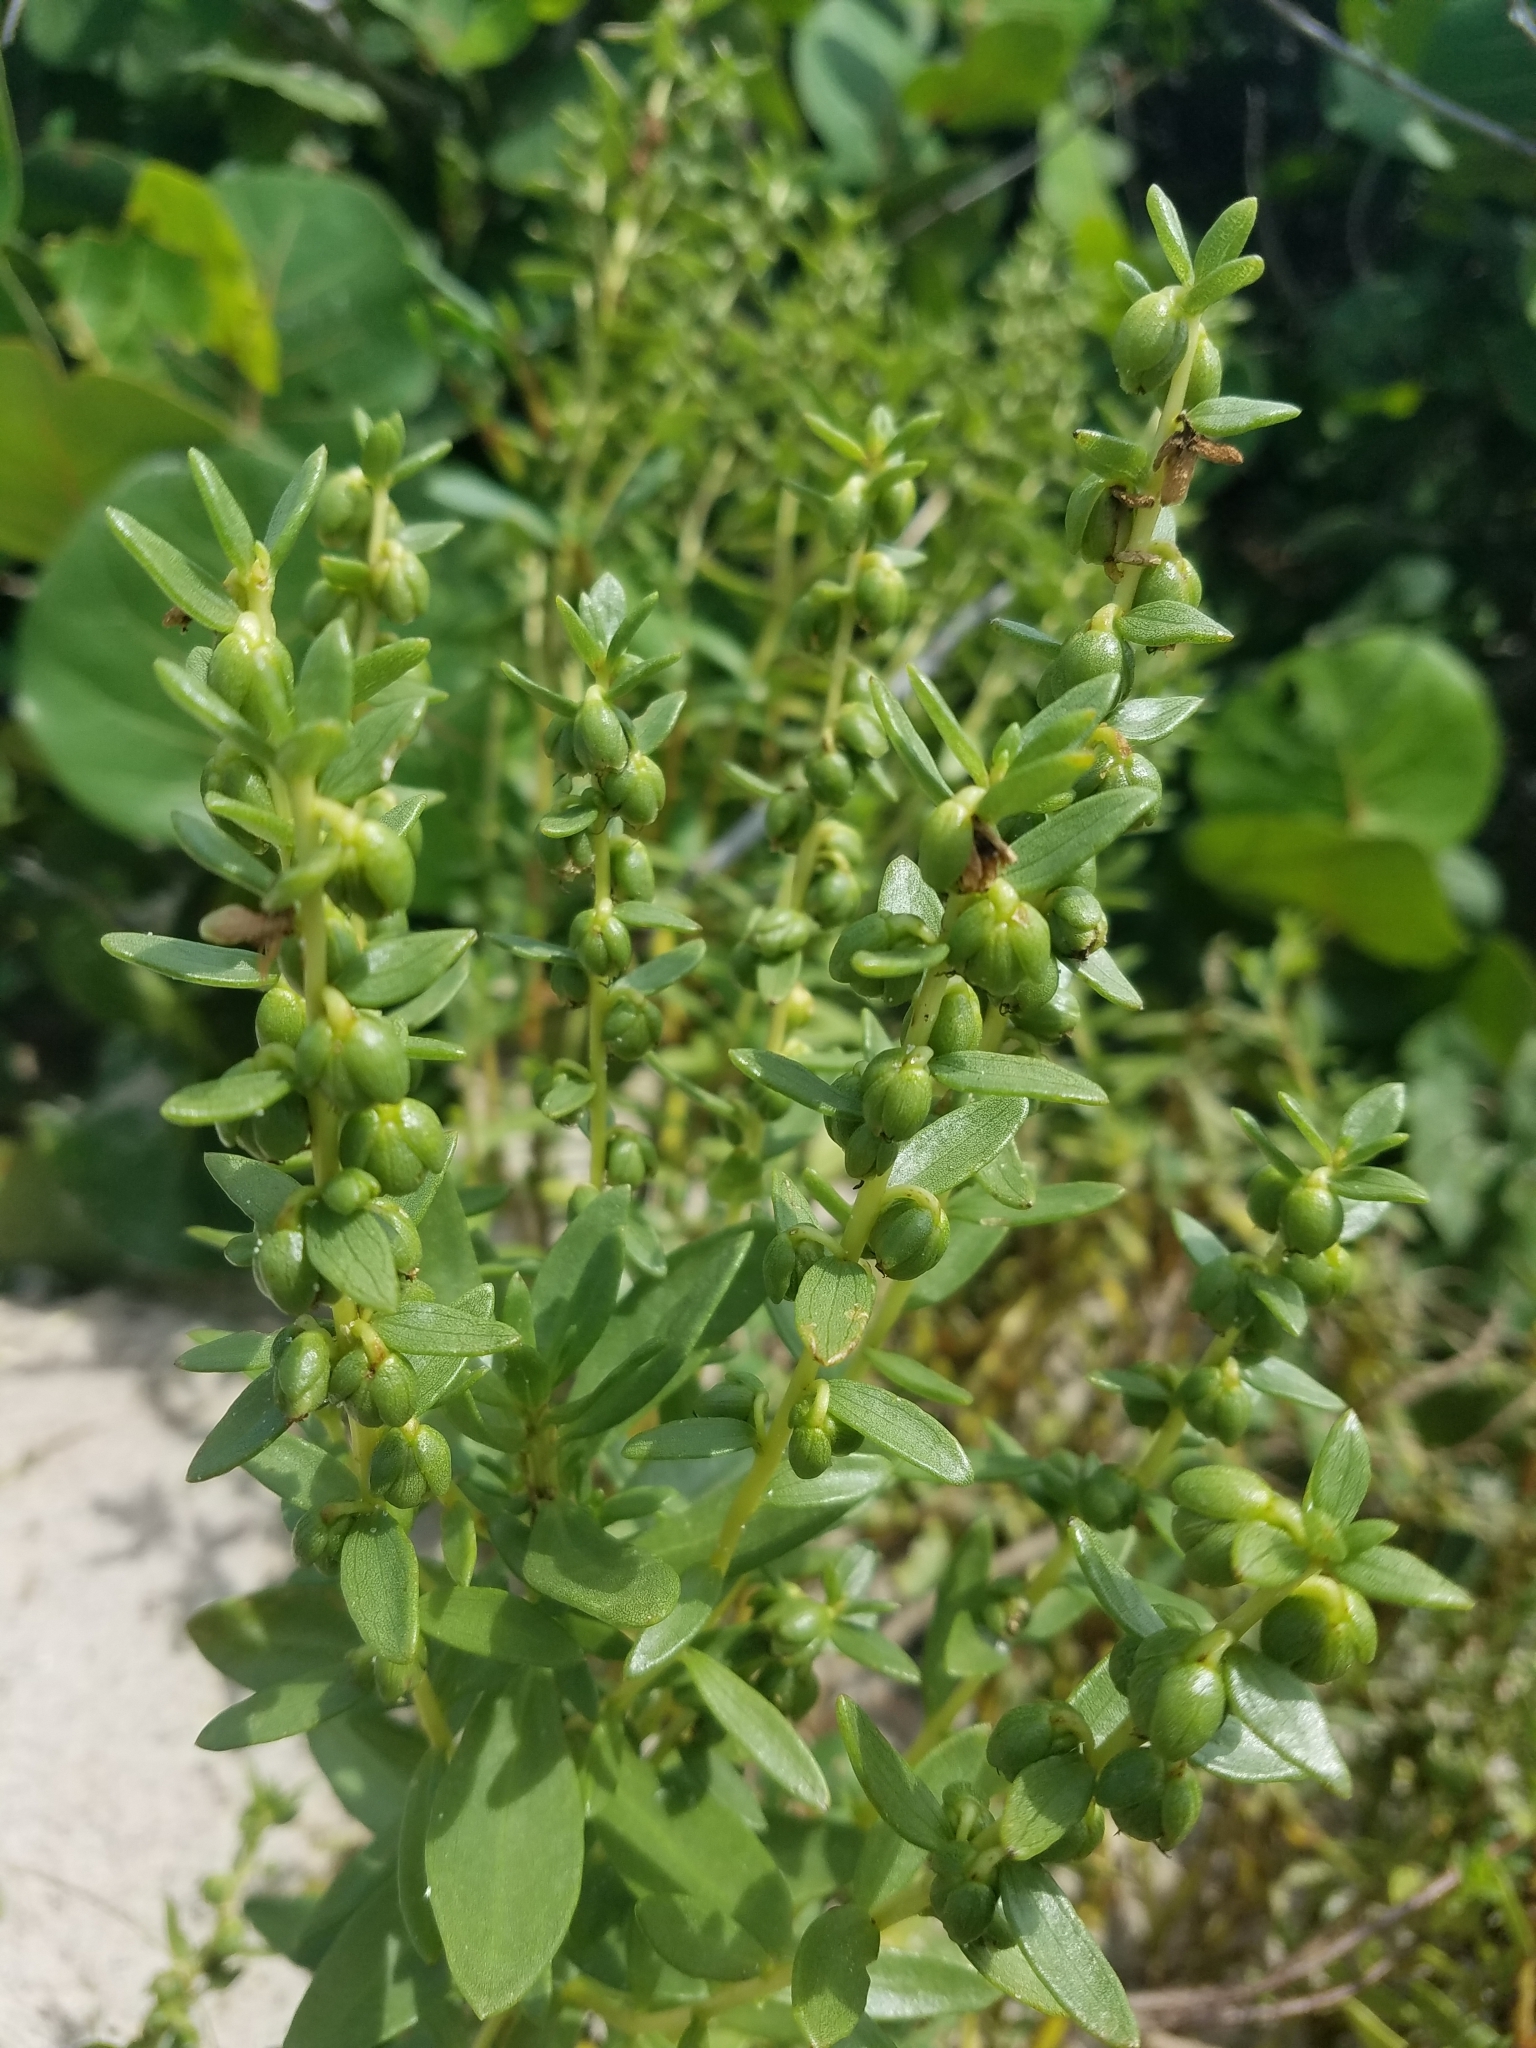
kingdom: Plantae
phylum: Tracheophyta
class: Magnoliopsida
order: Asterales
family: Asteraceae
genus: Iva
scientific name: Iva imbricata
